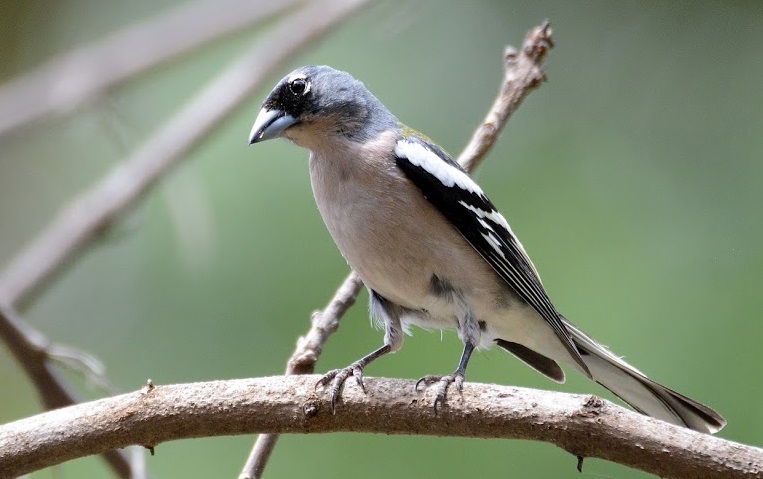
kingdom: Animalia
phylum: Chordata
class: Aves
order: Passeriformes
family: Fringillidae
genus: Fringilla
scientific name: Fringilla spodiogenys
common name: African chaffinch
